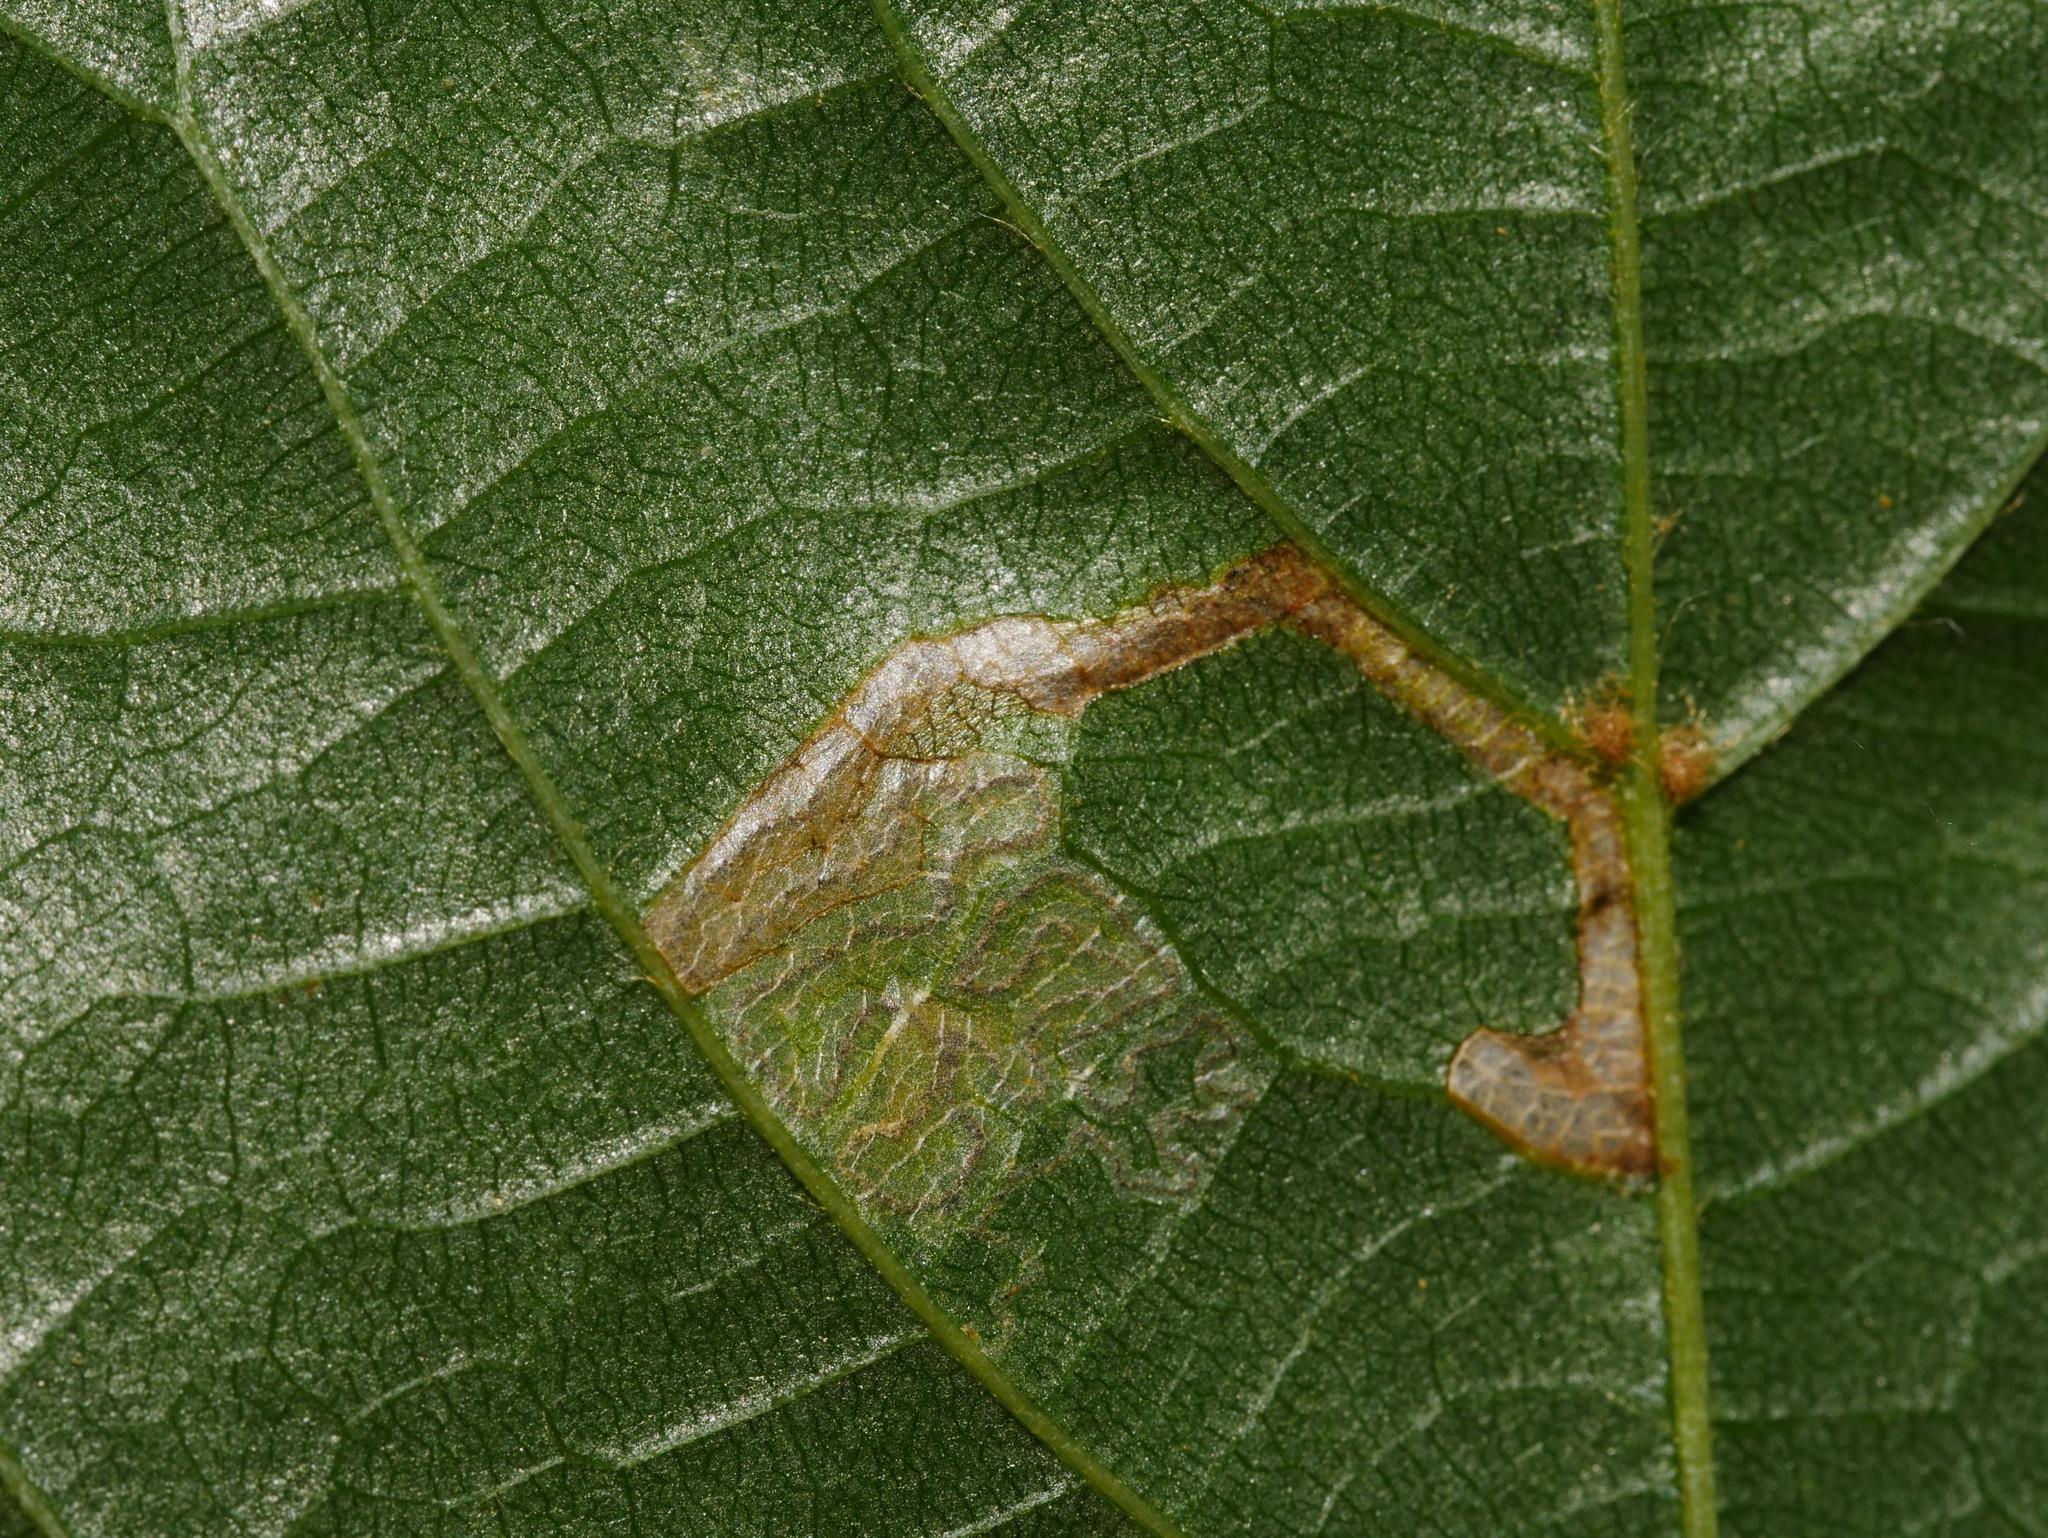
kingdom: Animalia
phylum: Arthropoda
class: Insecta
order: Lepidoptera
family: Nepticulidae
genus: Stigmella
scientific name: Stigmella tiliae
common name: Lime pigmy
